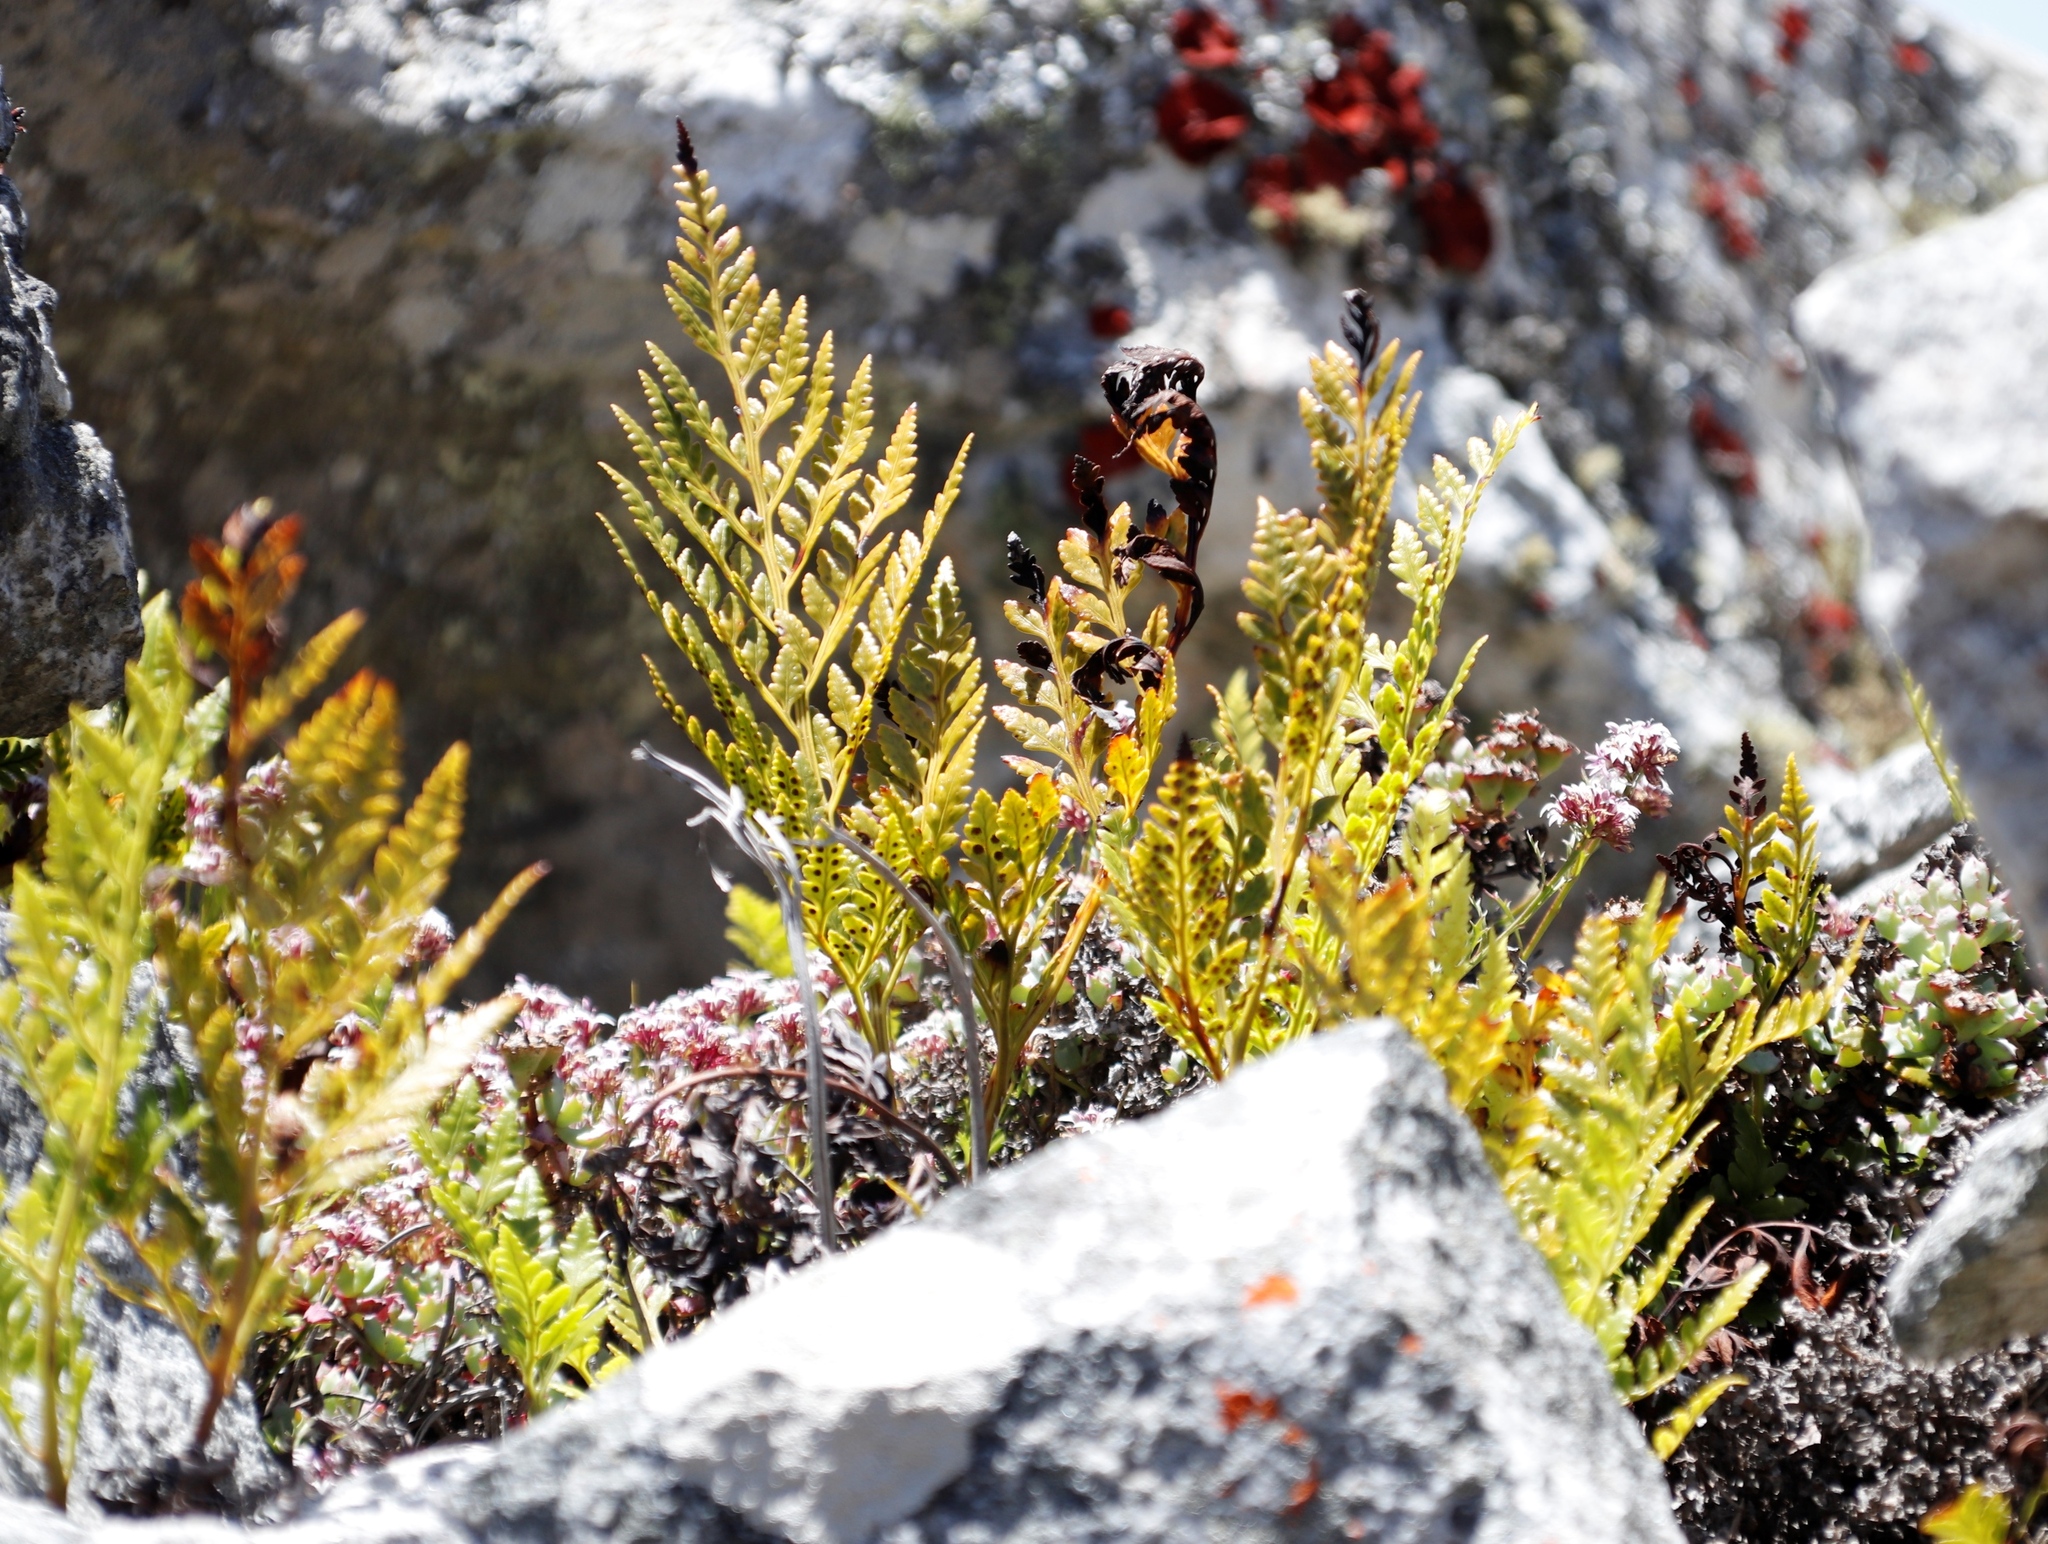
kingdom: Plantae
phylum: Tracheophyta
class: Polypodiopsida
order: Polypodiales
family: Dryopteridaceae
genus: Rumohra
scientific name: Rumohra adiantiformis
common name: Leather fern
